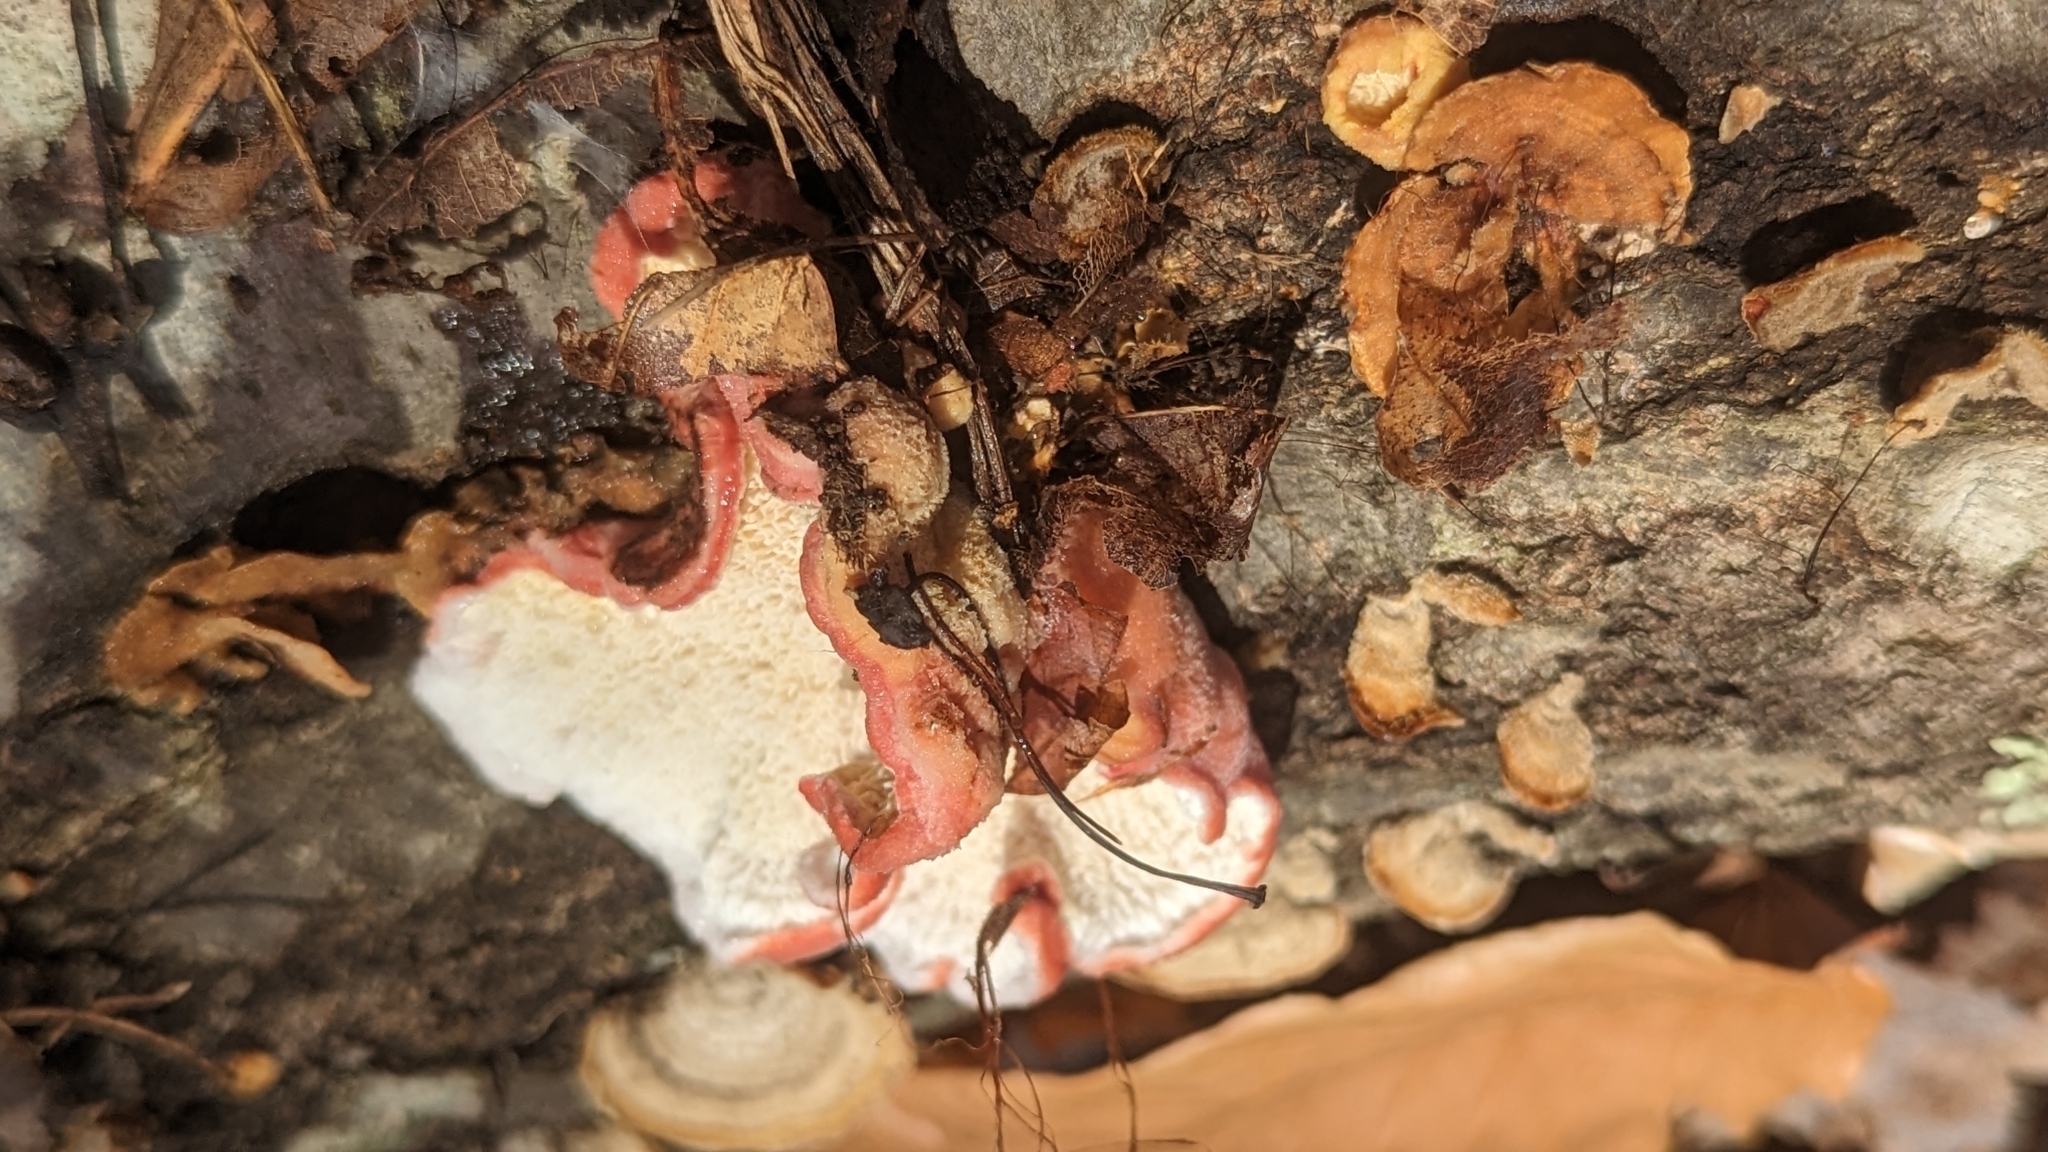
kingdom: Fungi
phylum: Basidiomycota
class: Agaricomycetes
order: Polyporales
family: Irpicaceae
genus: Byssomerulius
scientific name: Byssomerulius incarnatus
